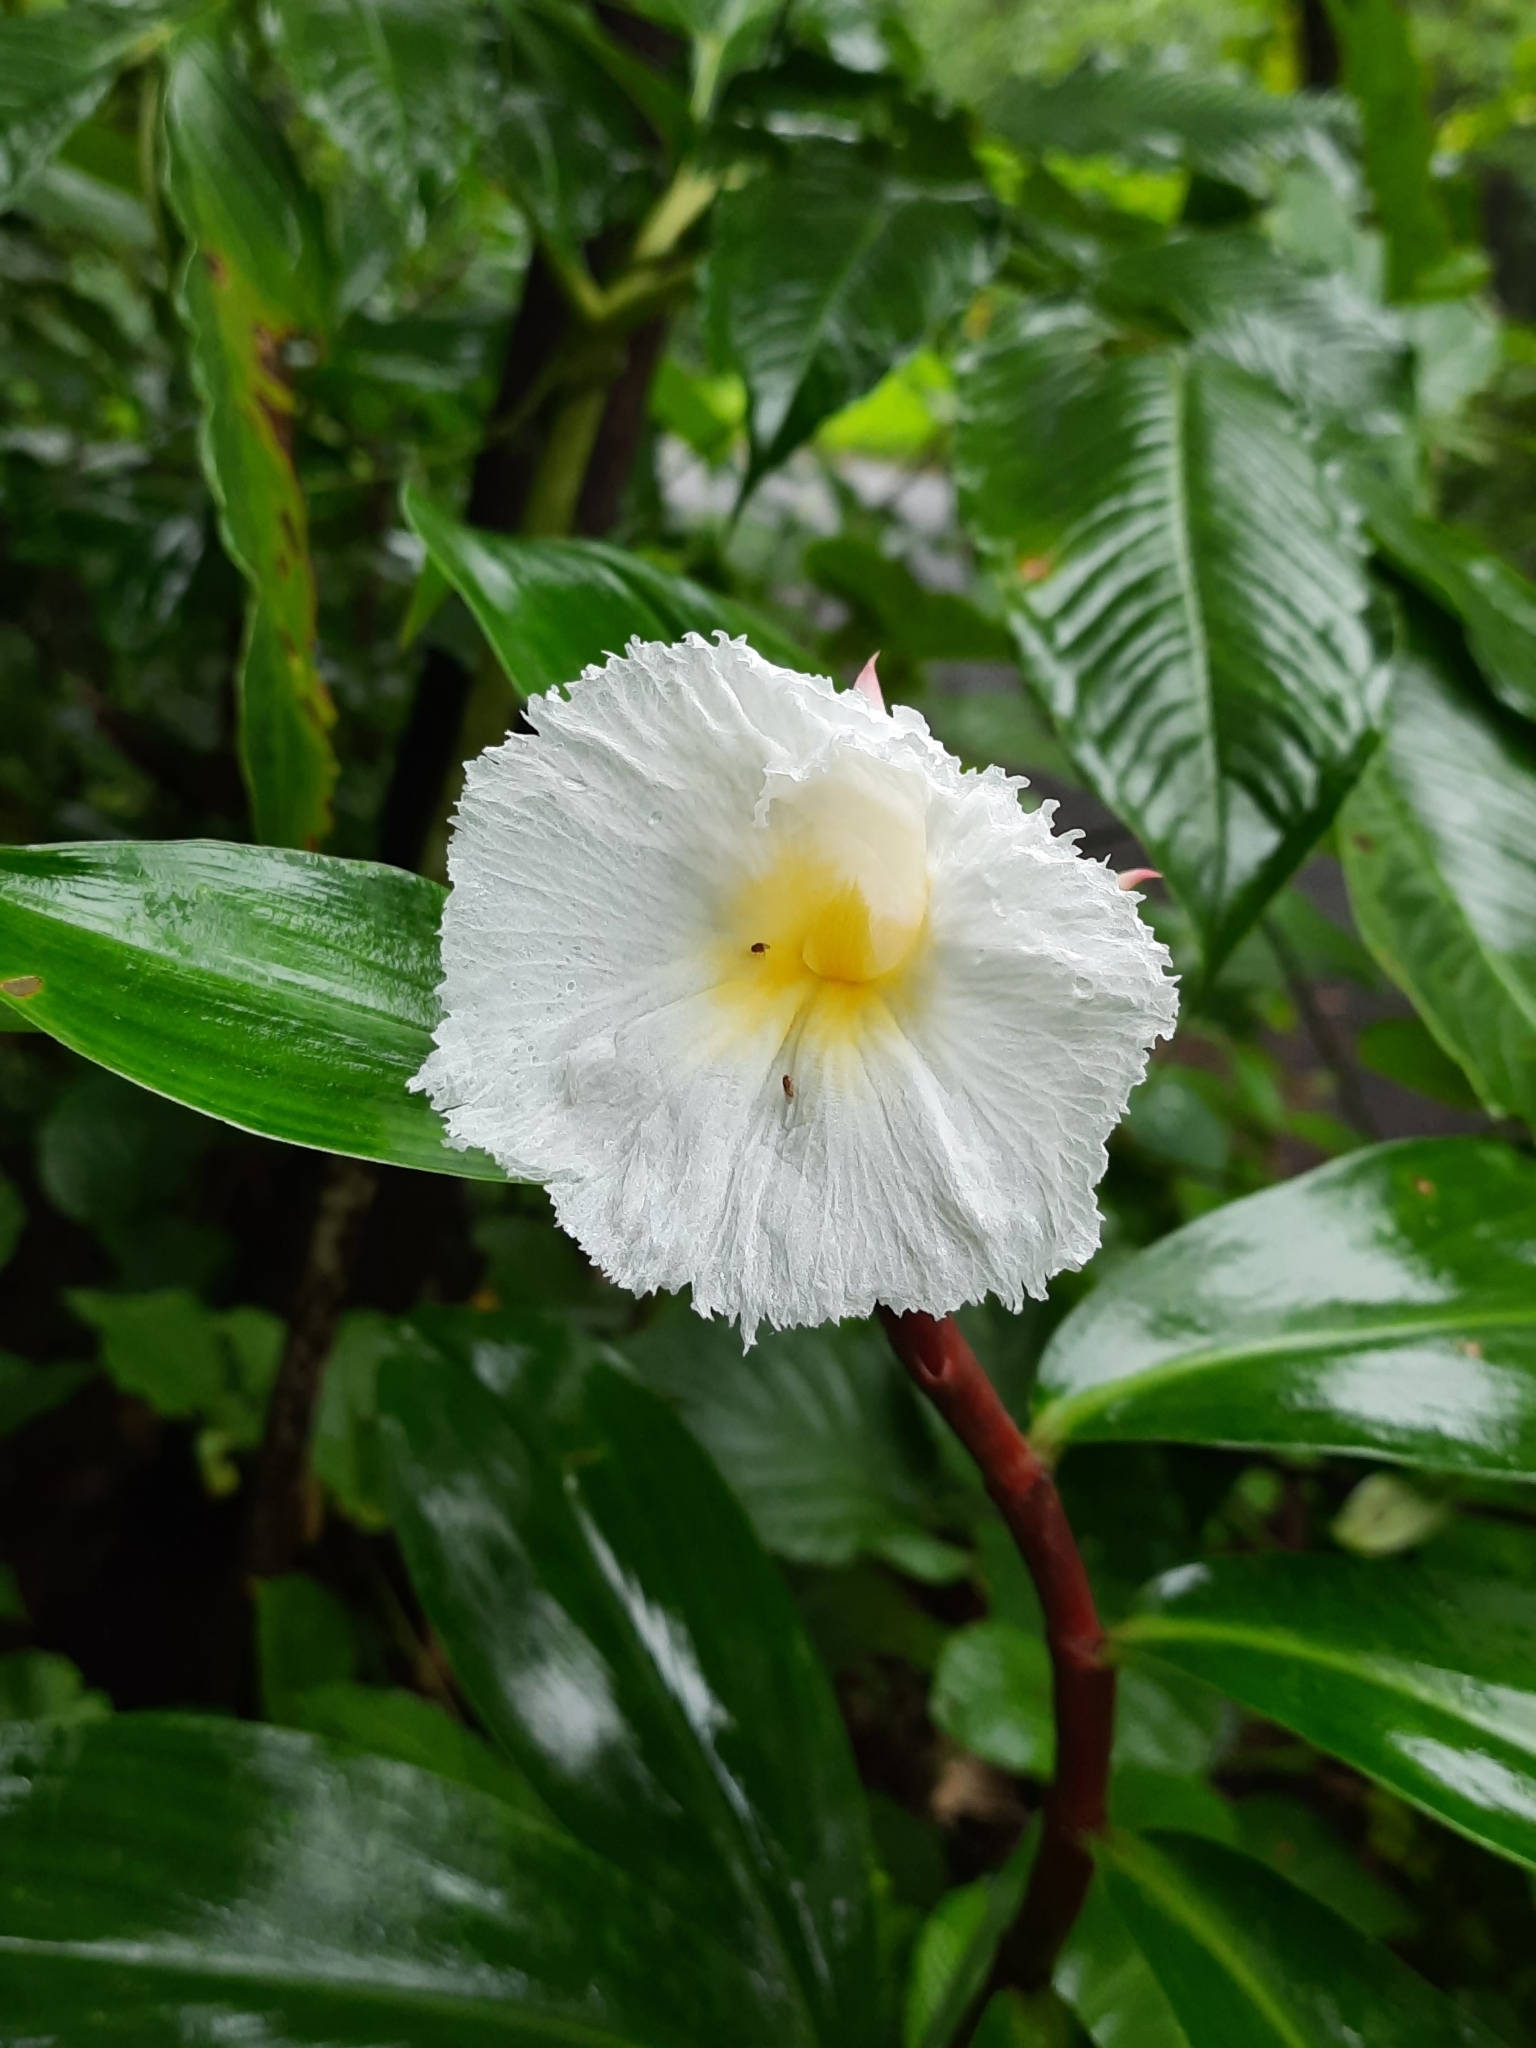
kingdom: Plantae
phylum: Tracheophyta
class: Liliopsida
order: Zingiberales
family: Costaceae
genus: Hellenia
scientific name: Hellenia speciosa
